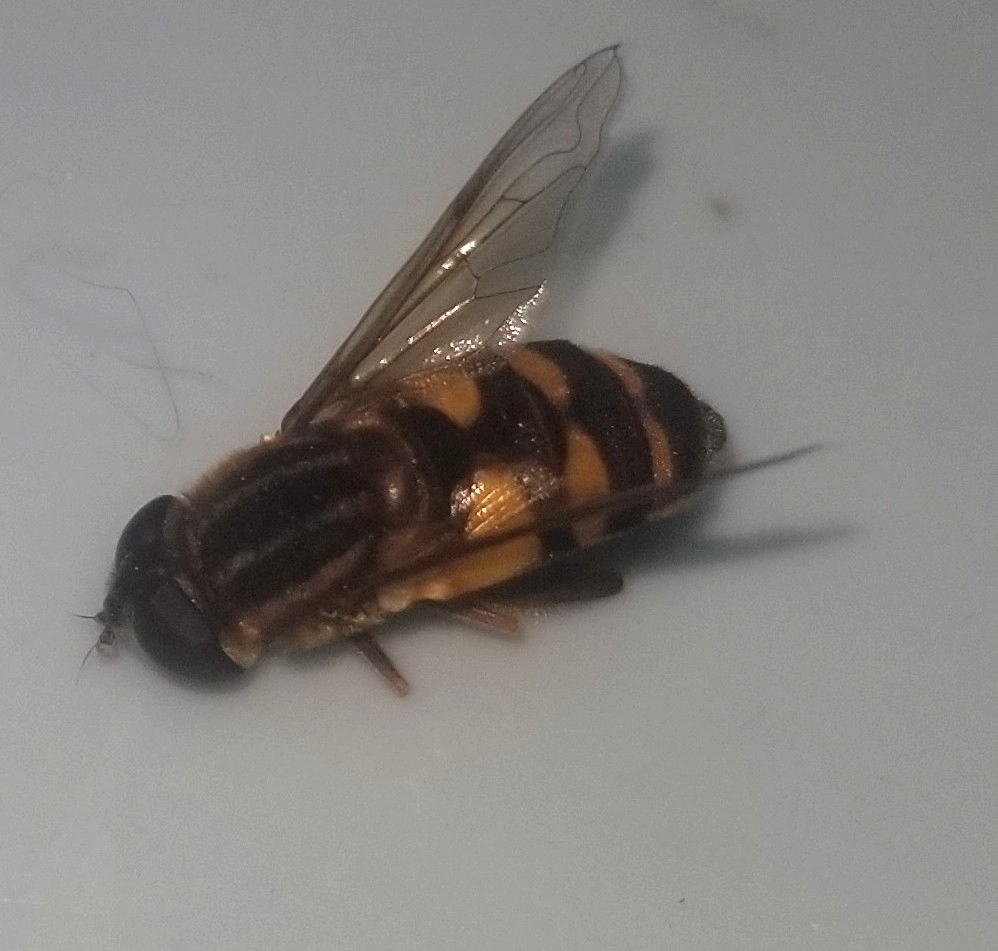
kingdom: Animalia
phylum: Arthropoda
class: Insecta
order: Diptera
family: Syrphidae
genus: Helophilus
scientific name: Helophilus fasciatus
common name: Narrow-headed marsh fly
